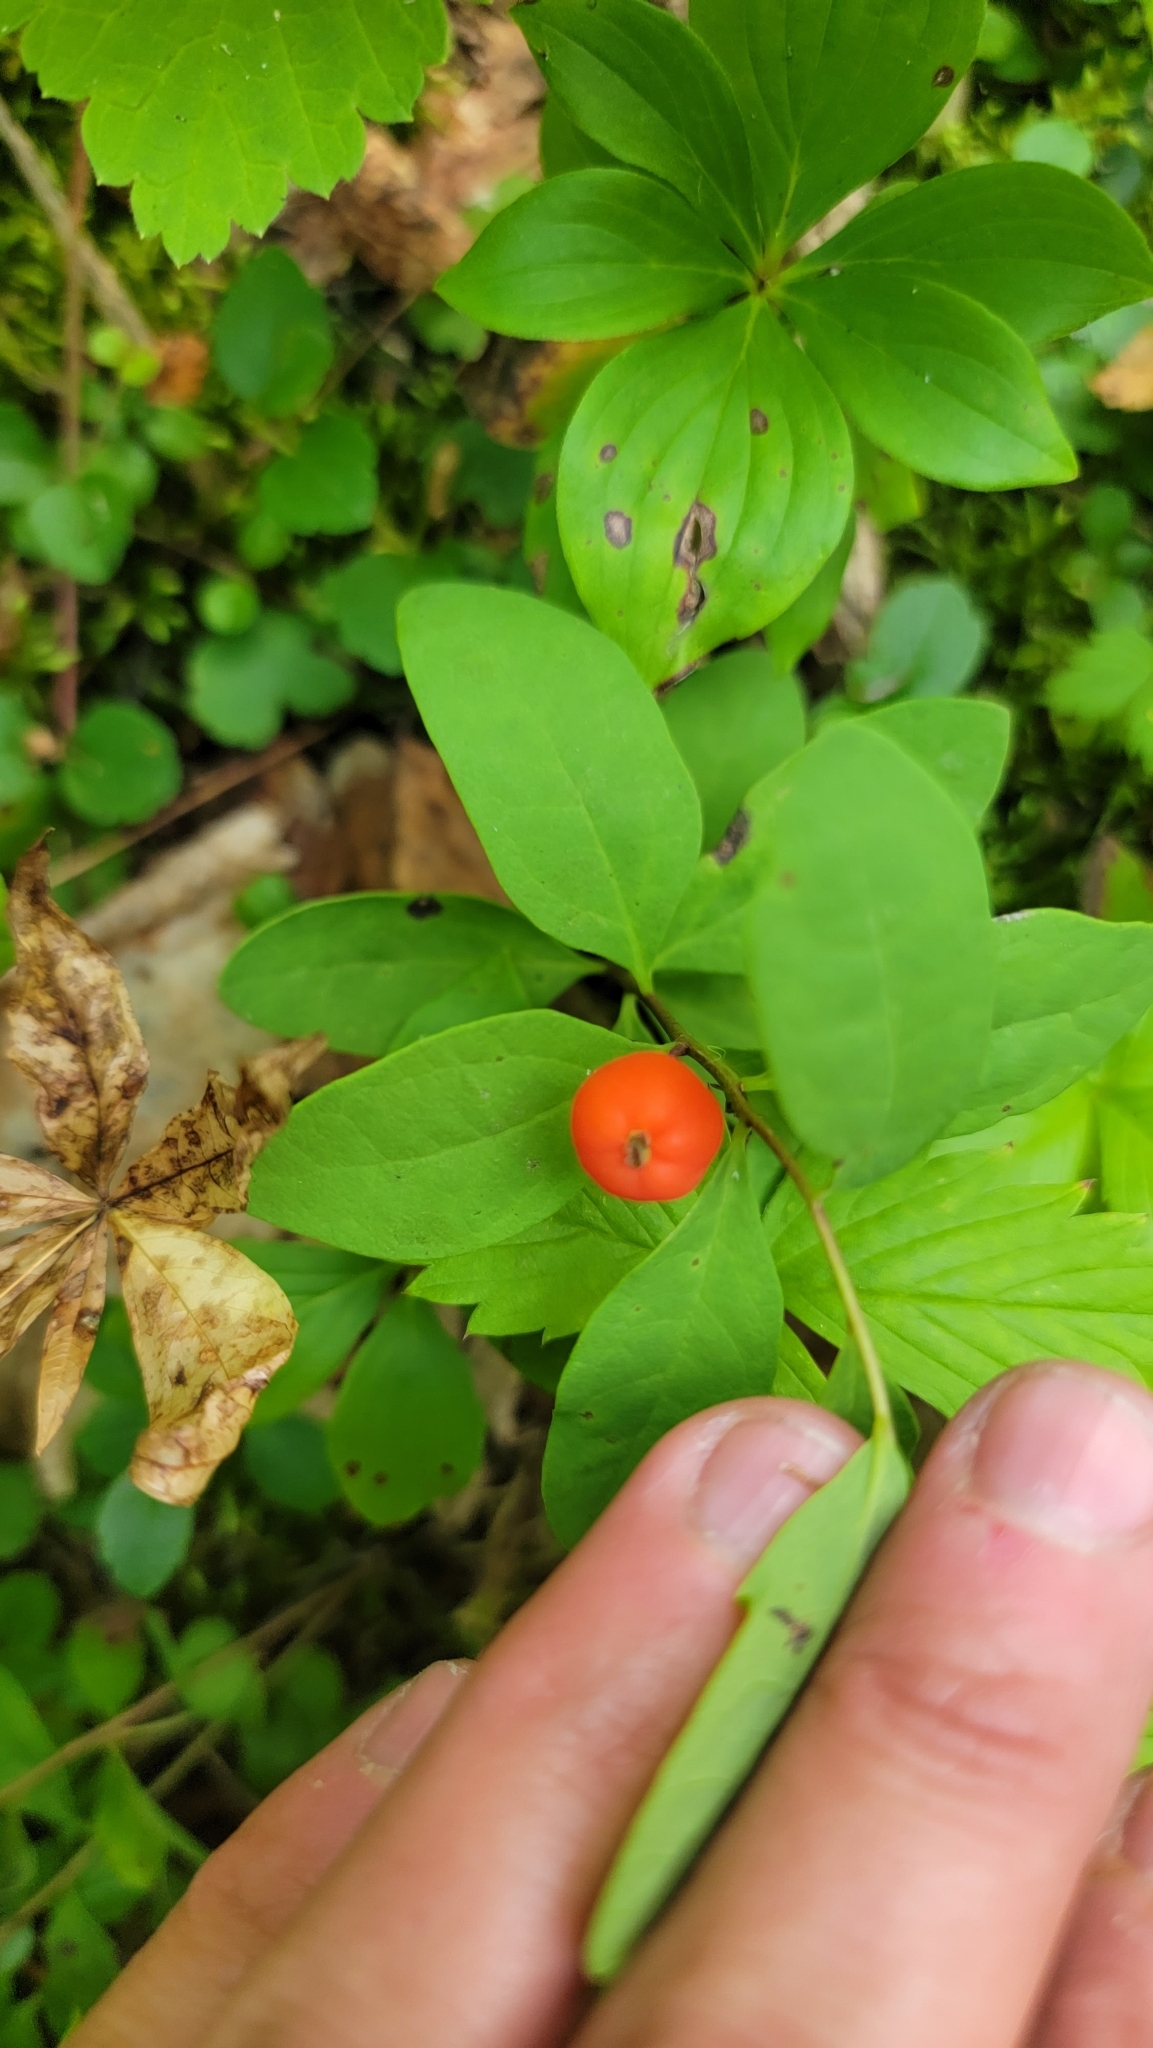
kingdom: Plantae
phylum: Tracheophyta
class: Magnoliopsida
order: Santalales
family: Comandraceae
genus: Geocaulon
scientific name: Geocaulon lividum
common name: Earthberry
